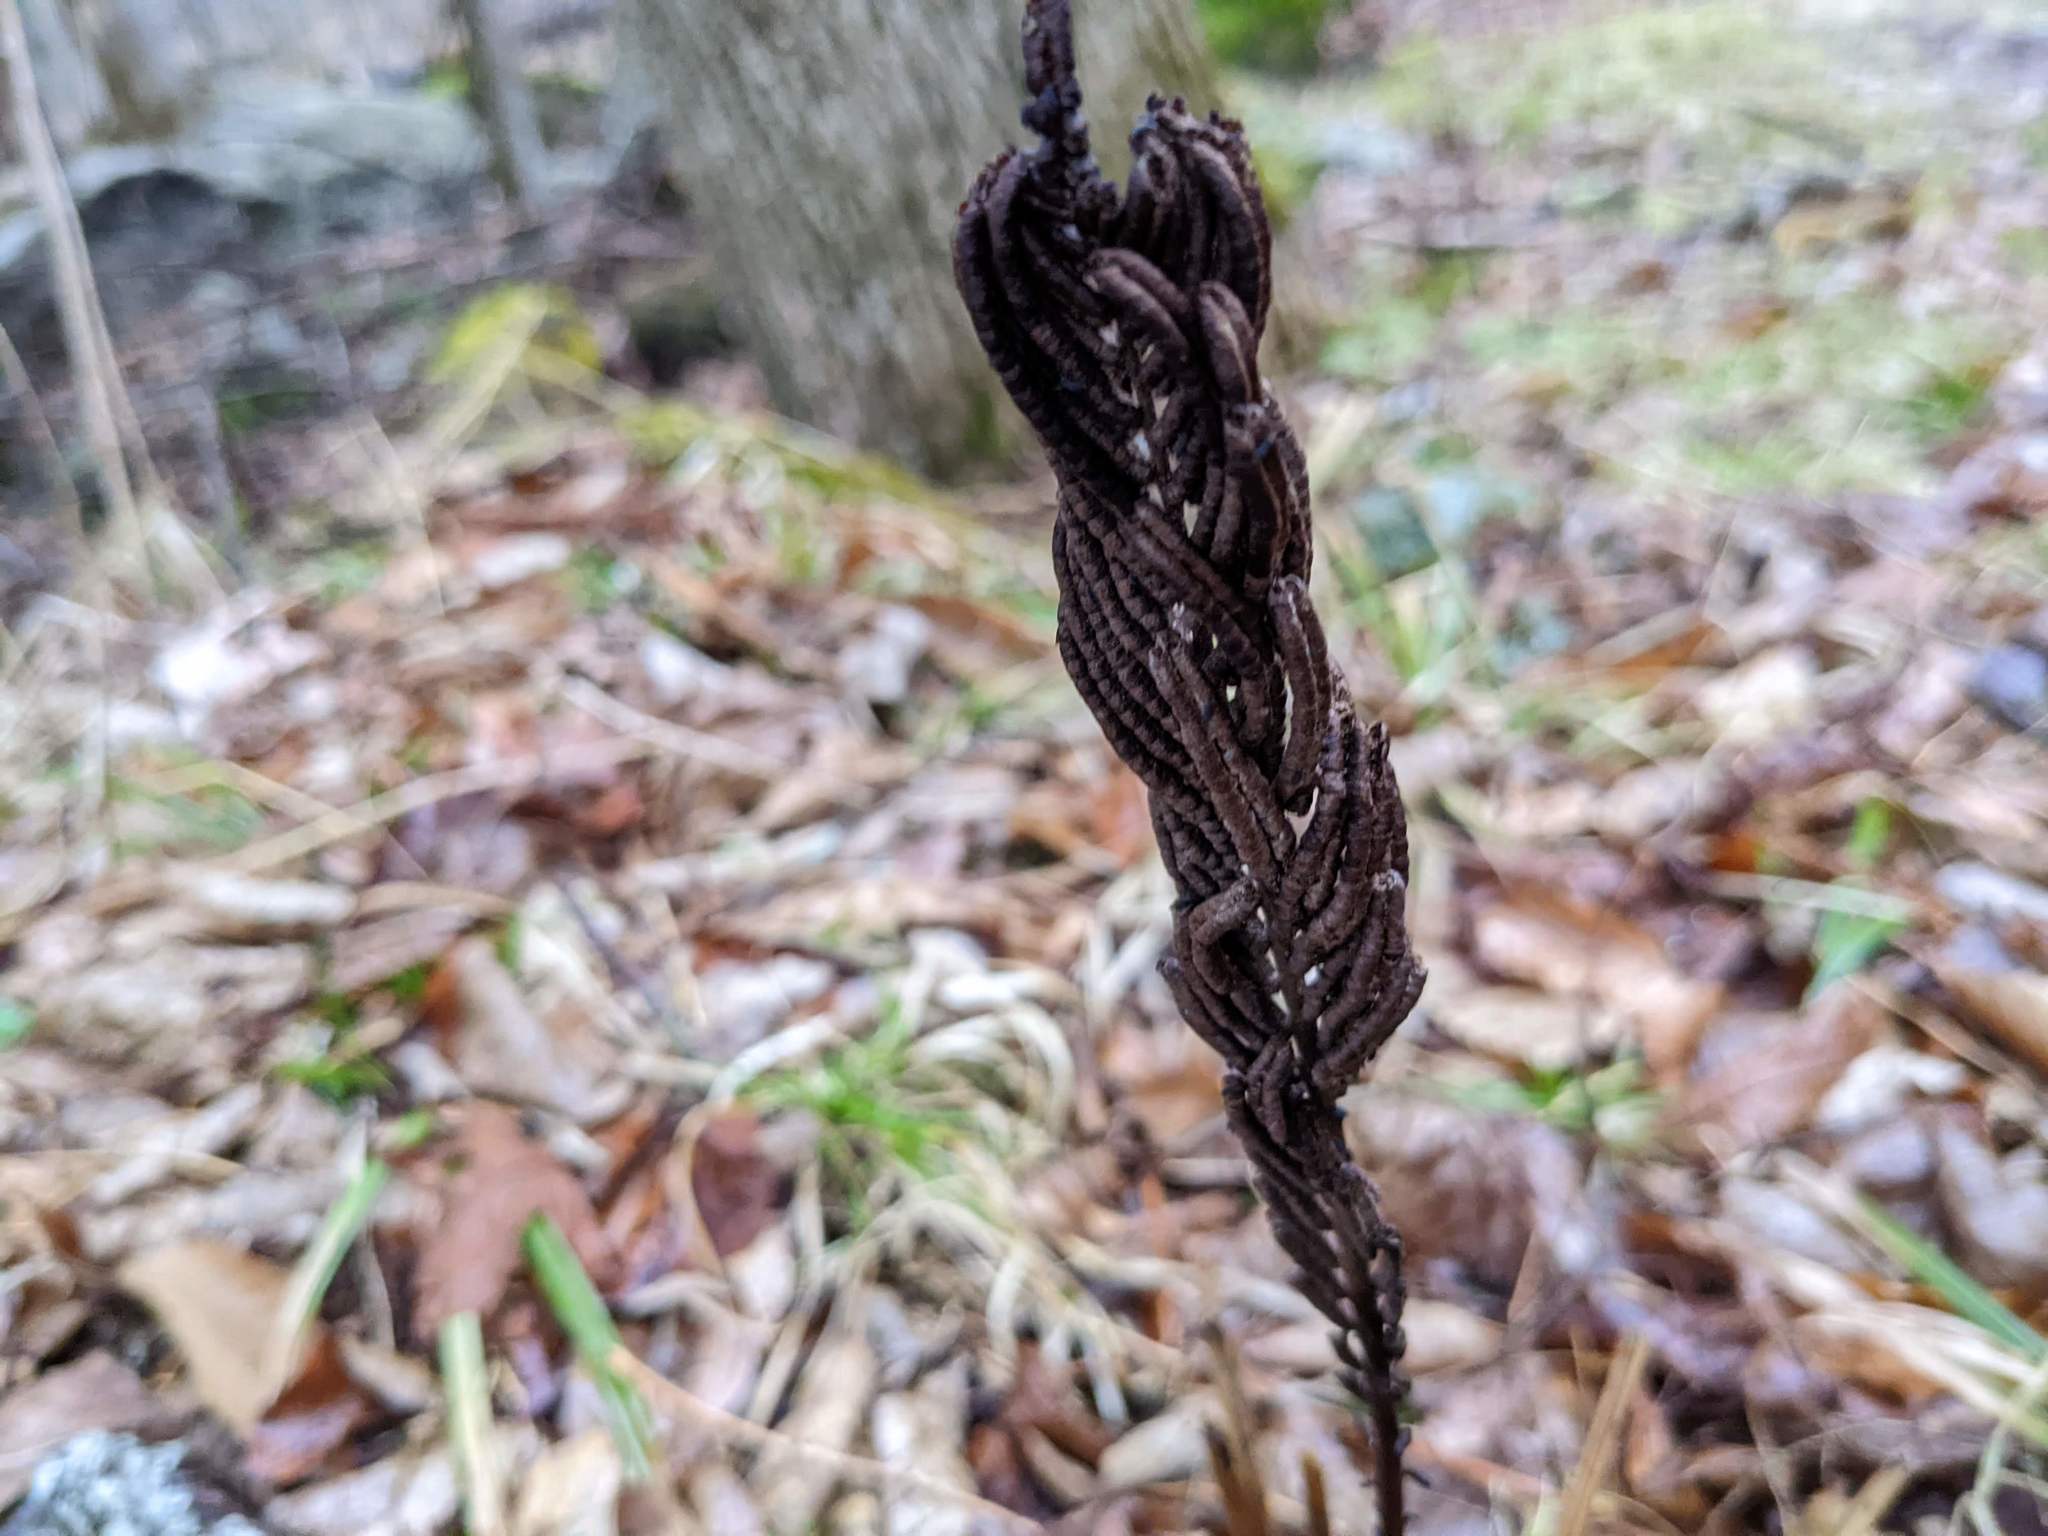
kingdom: Plantae
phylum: Tracheophyta
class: Polypodiopsida
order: Polypodiales
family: Onocleaceae
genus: Onoclea
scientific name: Onoclea sensibilis
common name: Sensitive fern
